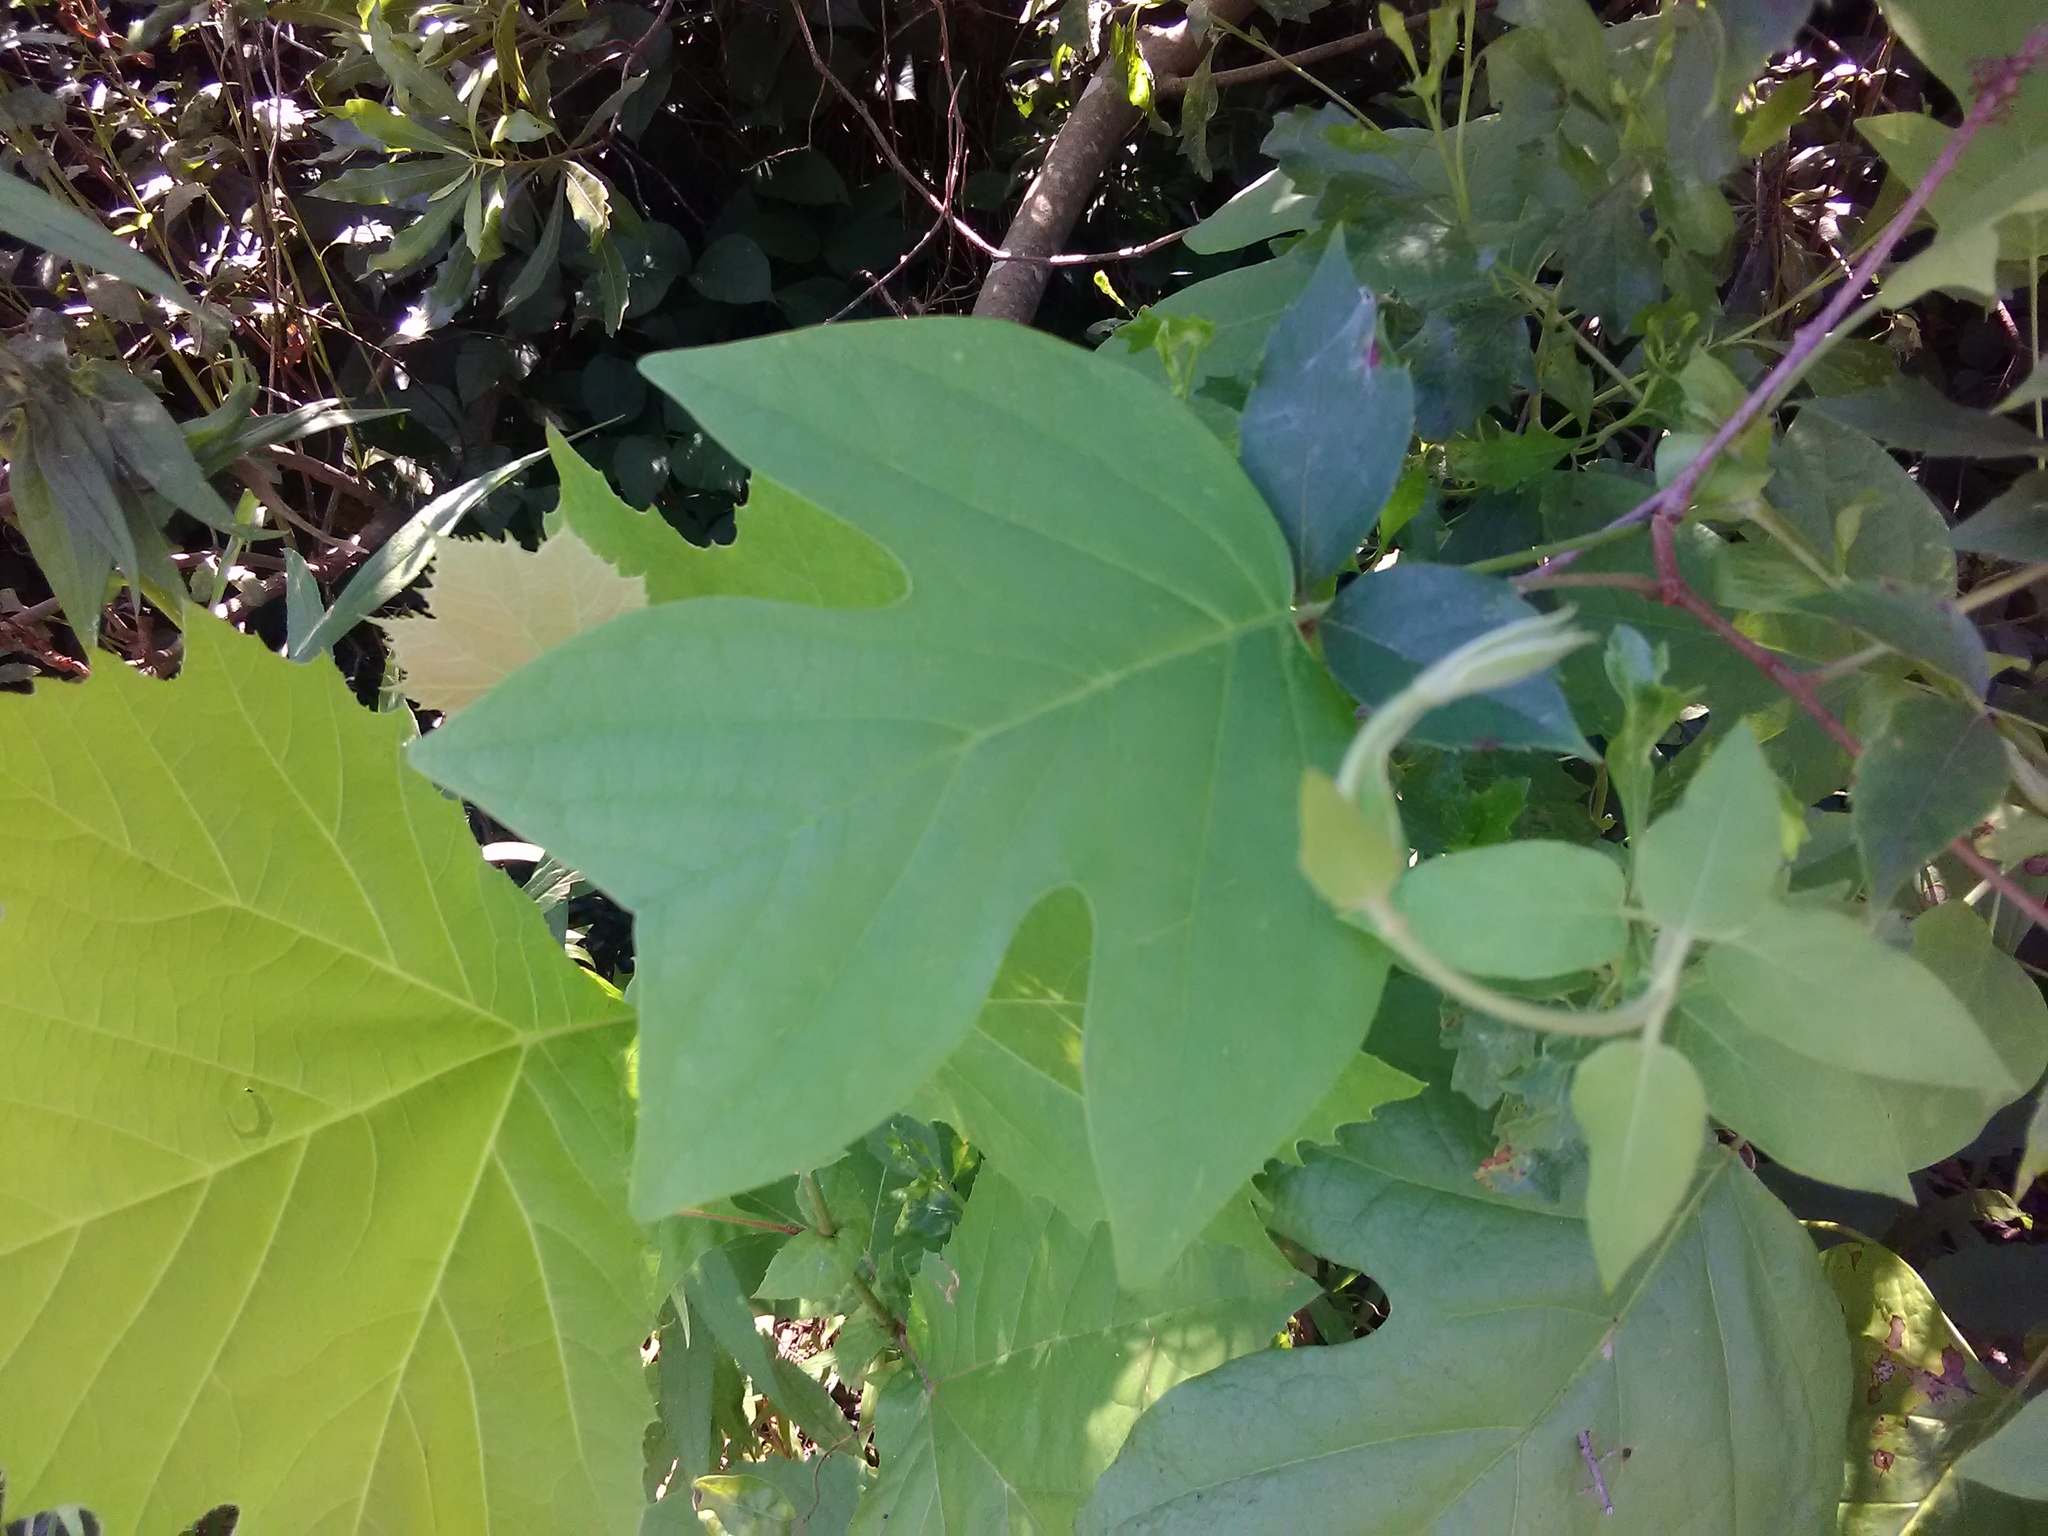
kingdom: Plantae
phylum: Tracheophyta
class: Magnoliopsida
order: Magnoliales
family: Magnoliaceae
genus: Liriodendron
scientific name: Liriodendron tulipifera
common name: Tulip tree
